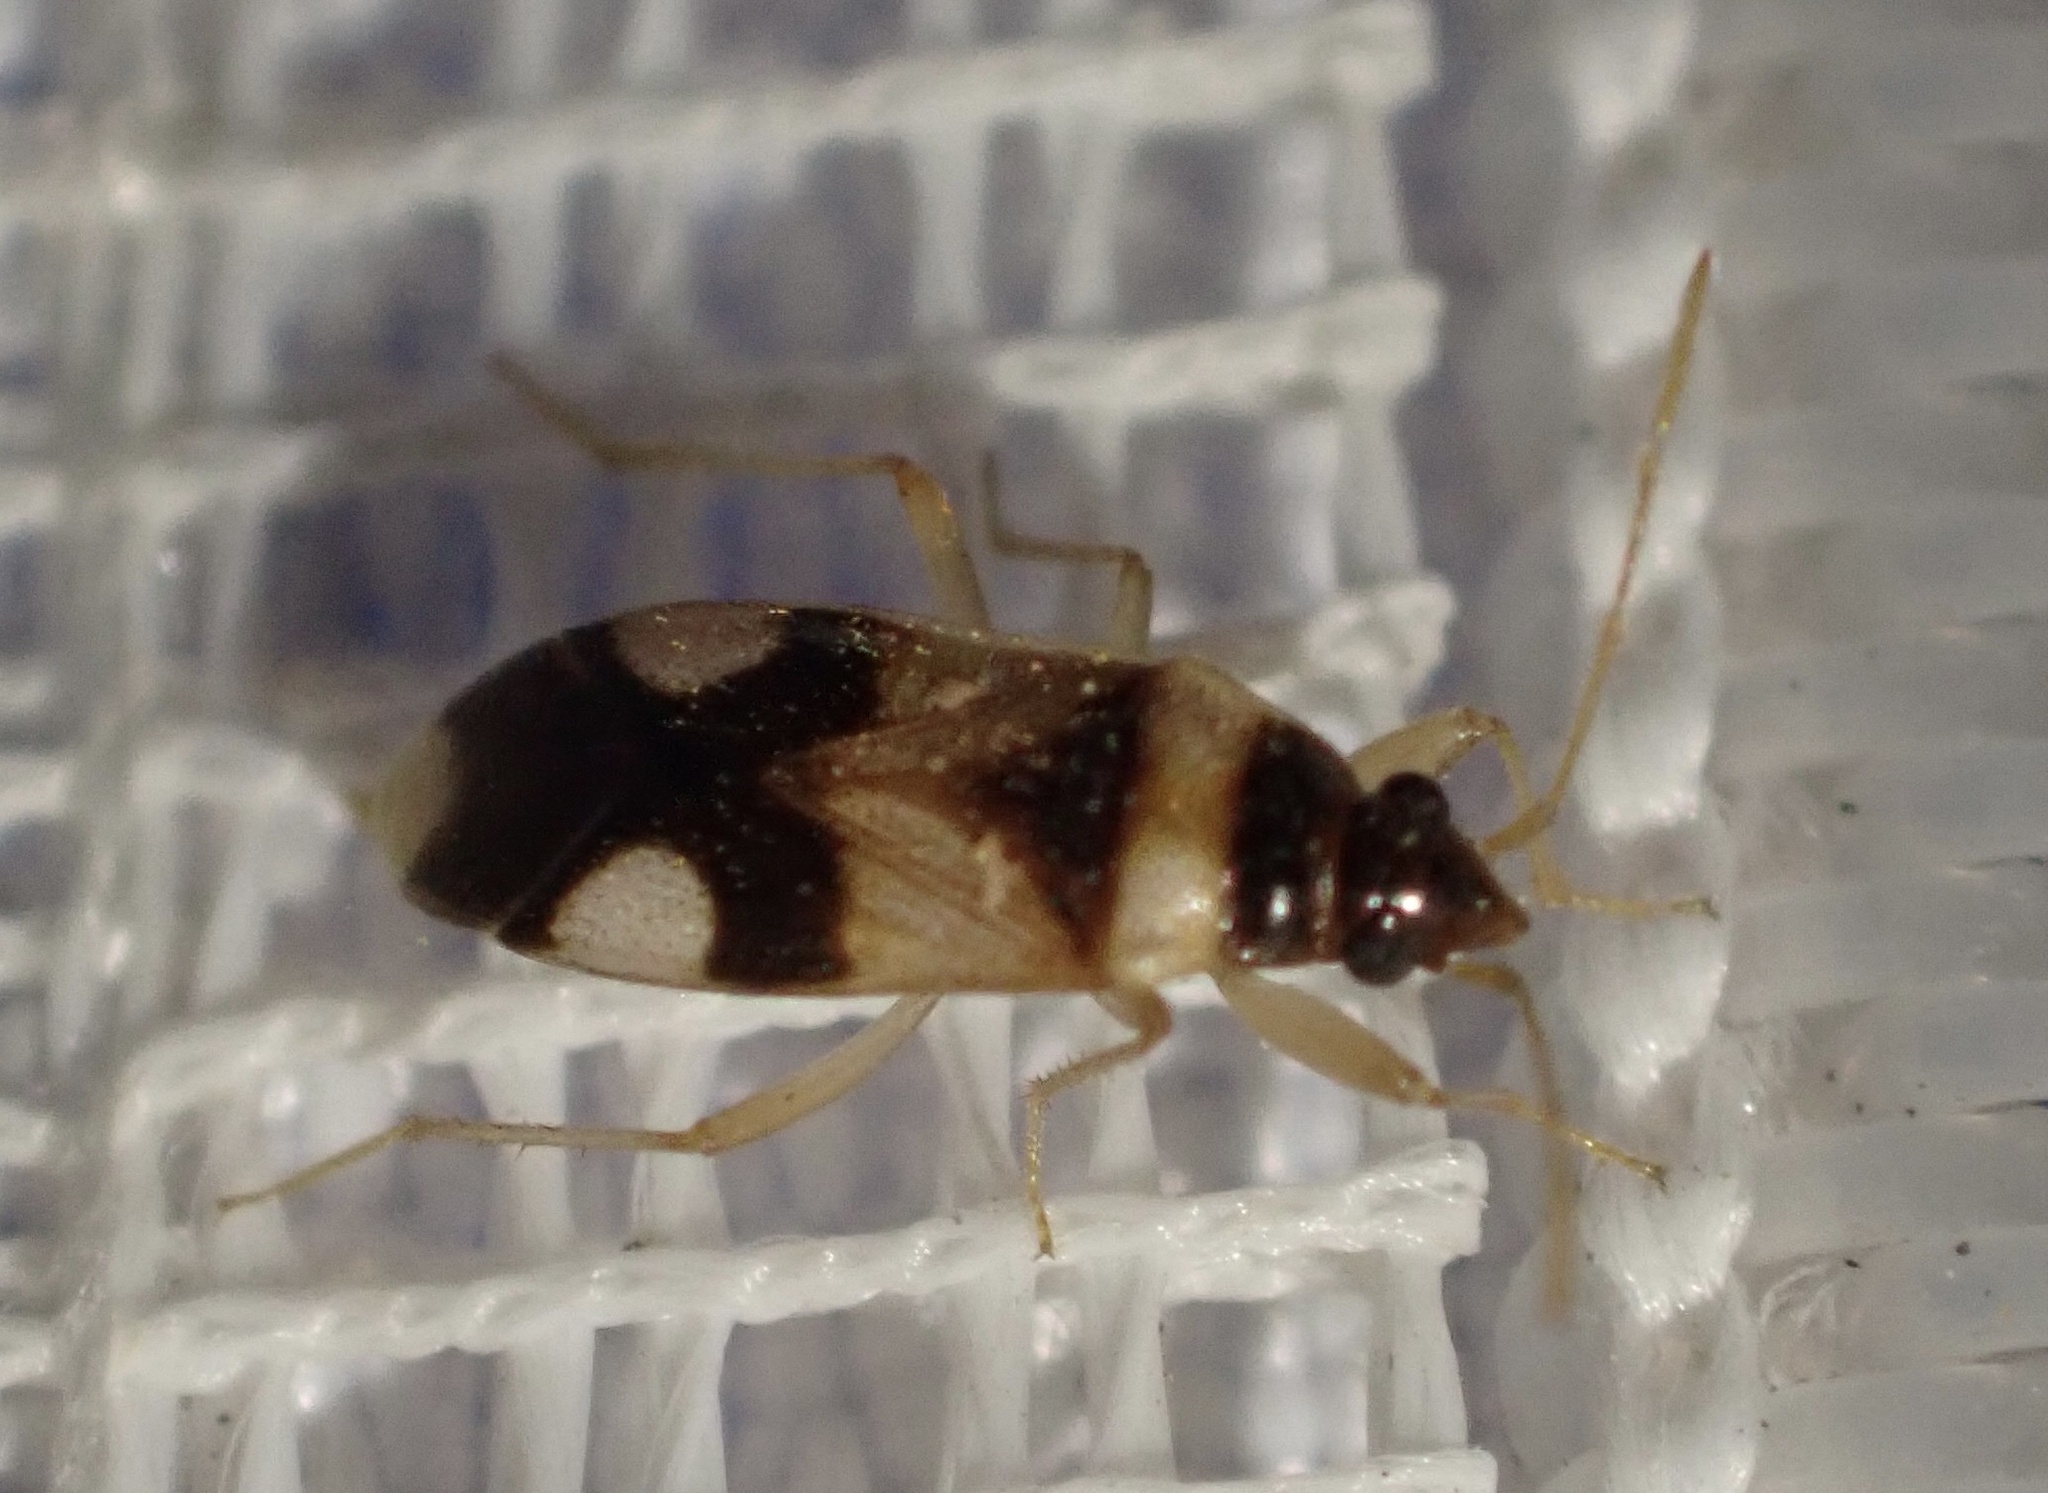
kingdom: Animalia
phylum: Arthropoda
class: Insecta
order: Hemiptera
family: Rhyparochromidae
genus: Anepsiocoris
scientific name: Anepsiocoris encaustus
